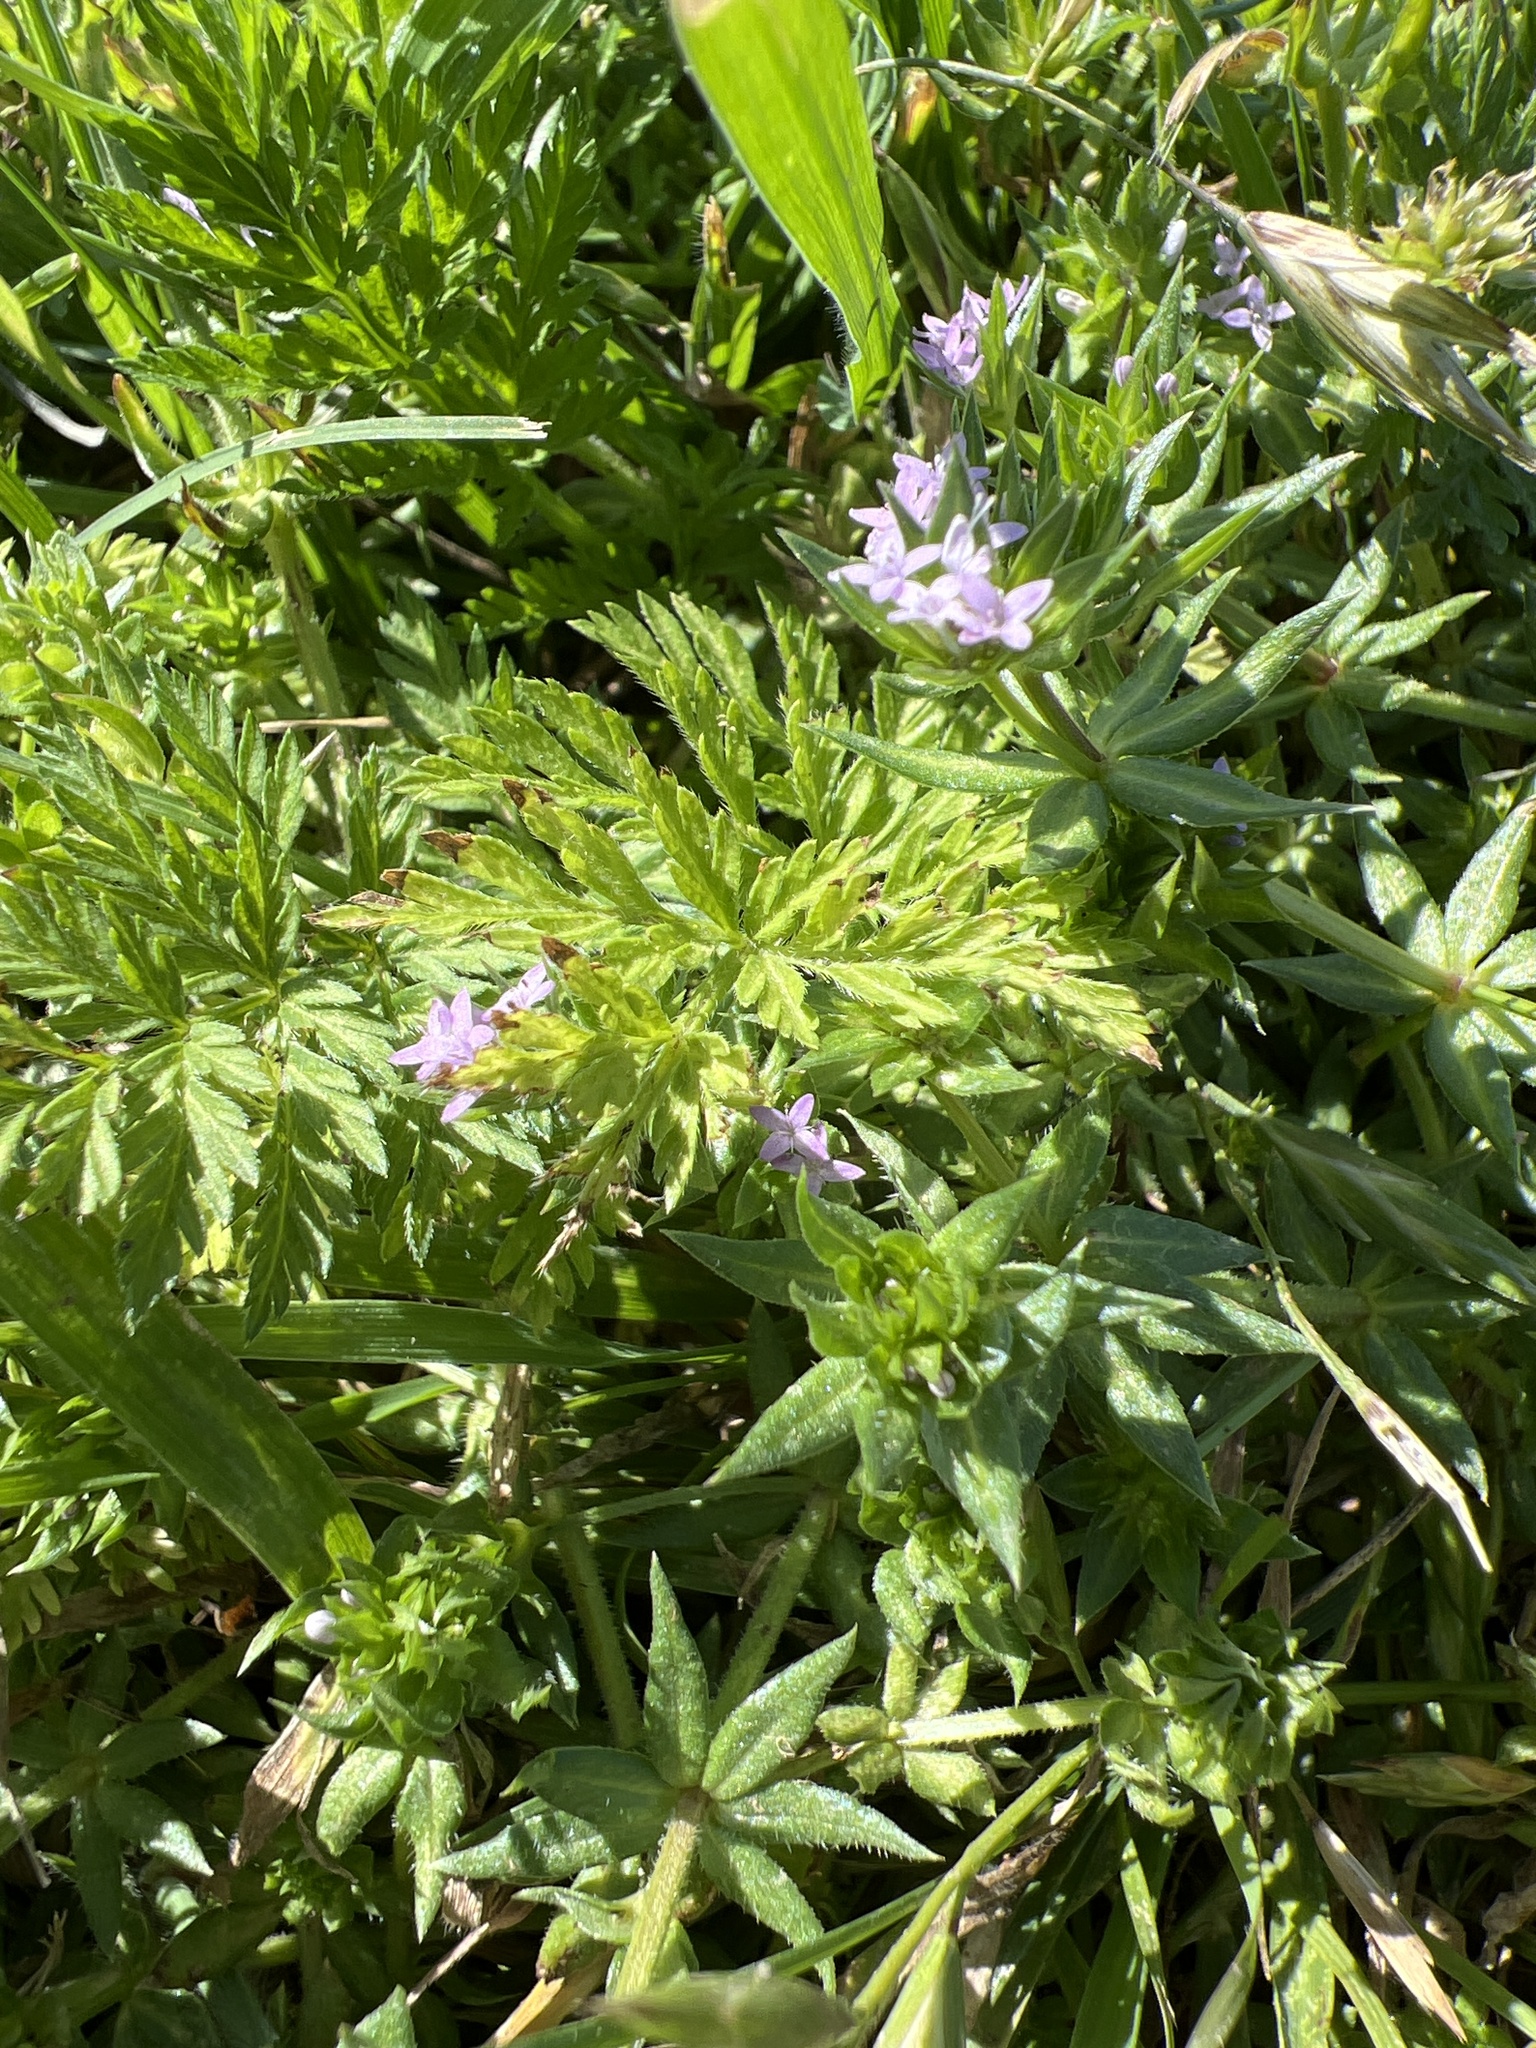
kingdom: Plantae
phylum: Tracheophyta
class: Magnoliopsida
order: Gentianales
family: Rubiaceae
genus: Sherardia
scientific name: Sherardia arvensis
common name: Field madder
